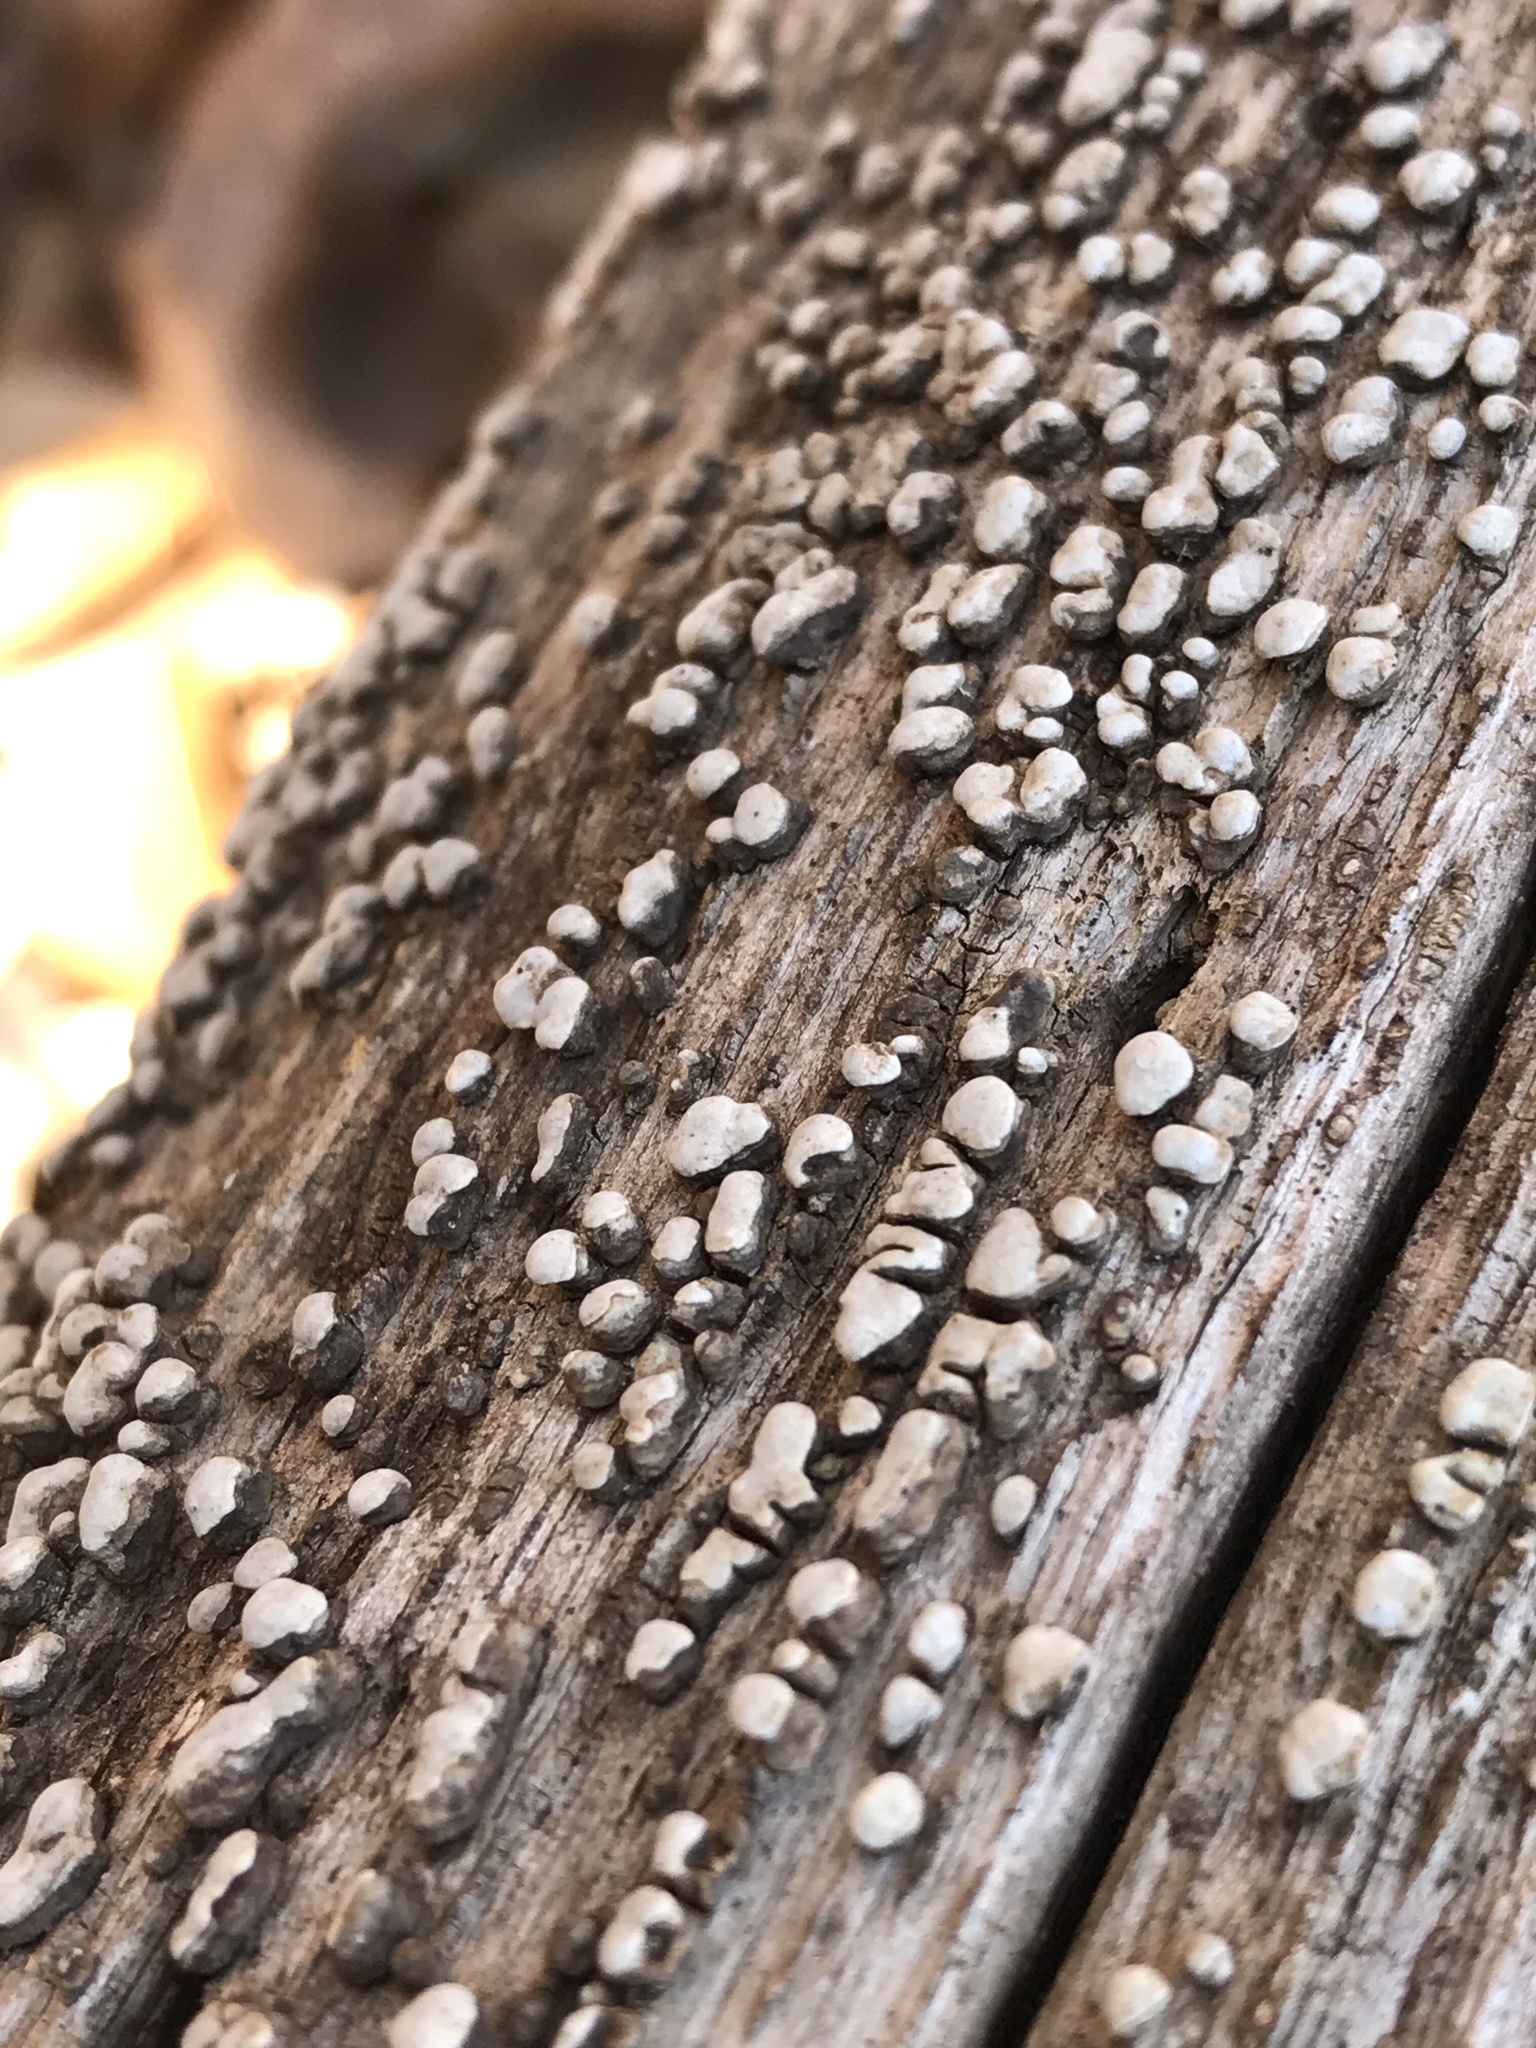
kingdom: Fungi
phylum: Basidiomycota
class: Agaricomycetes
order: Russulales
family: Stereaceae
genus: Xylobolus
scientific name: Xylobolus frustulatus
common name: Ceramic parchment
